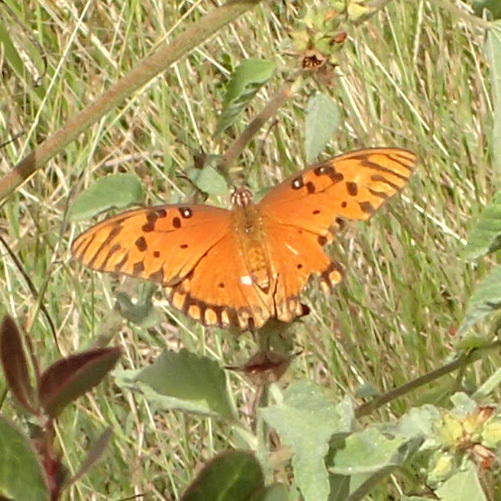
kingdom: Animalia
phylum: Arthropoda
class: Insecta
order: Lepidoptera
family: Nymphalidae
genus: Dione
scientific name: Dione vanillae
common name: Gulf fritillary
